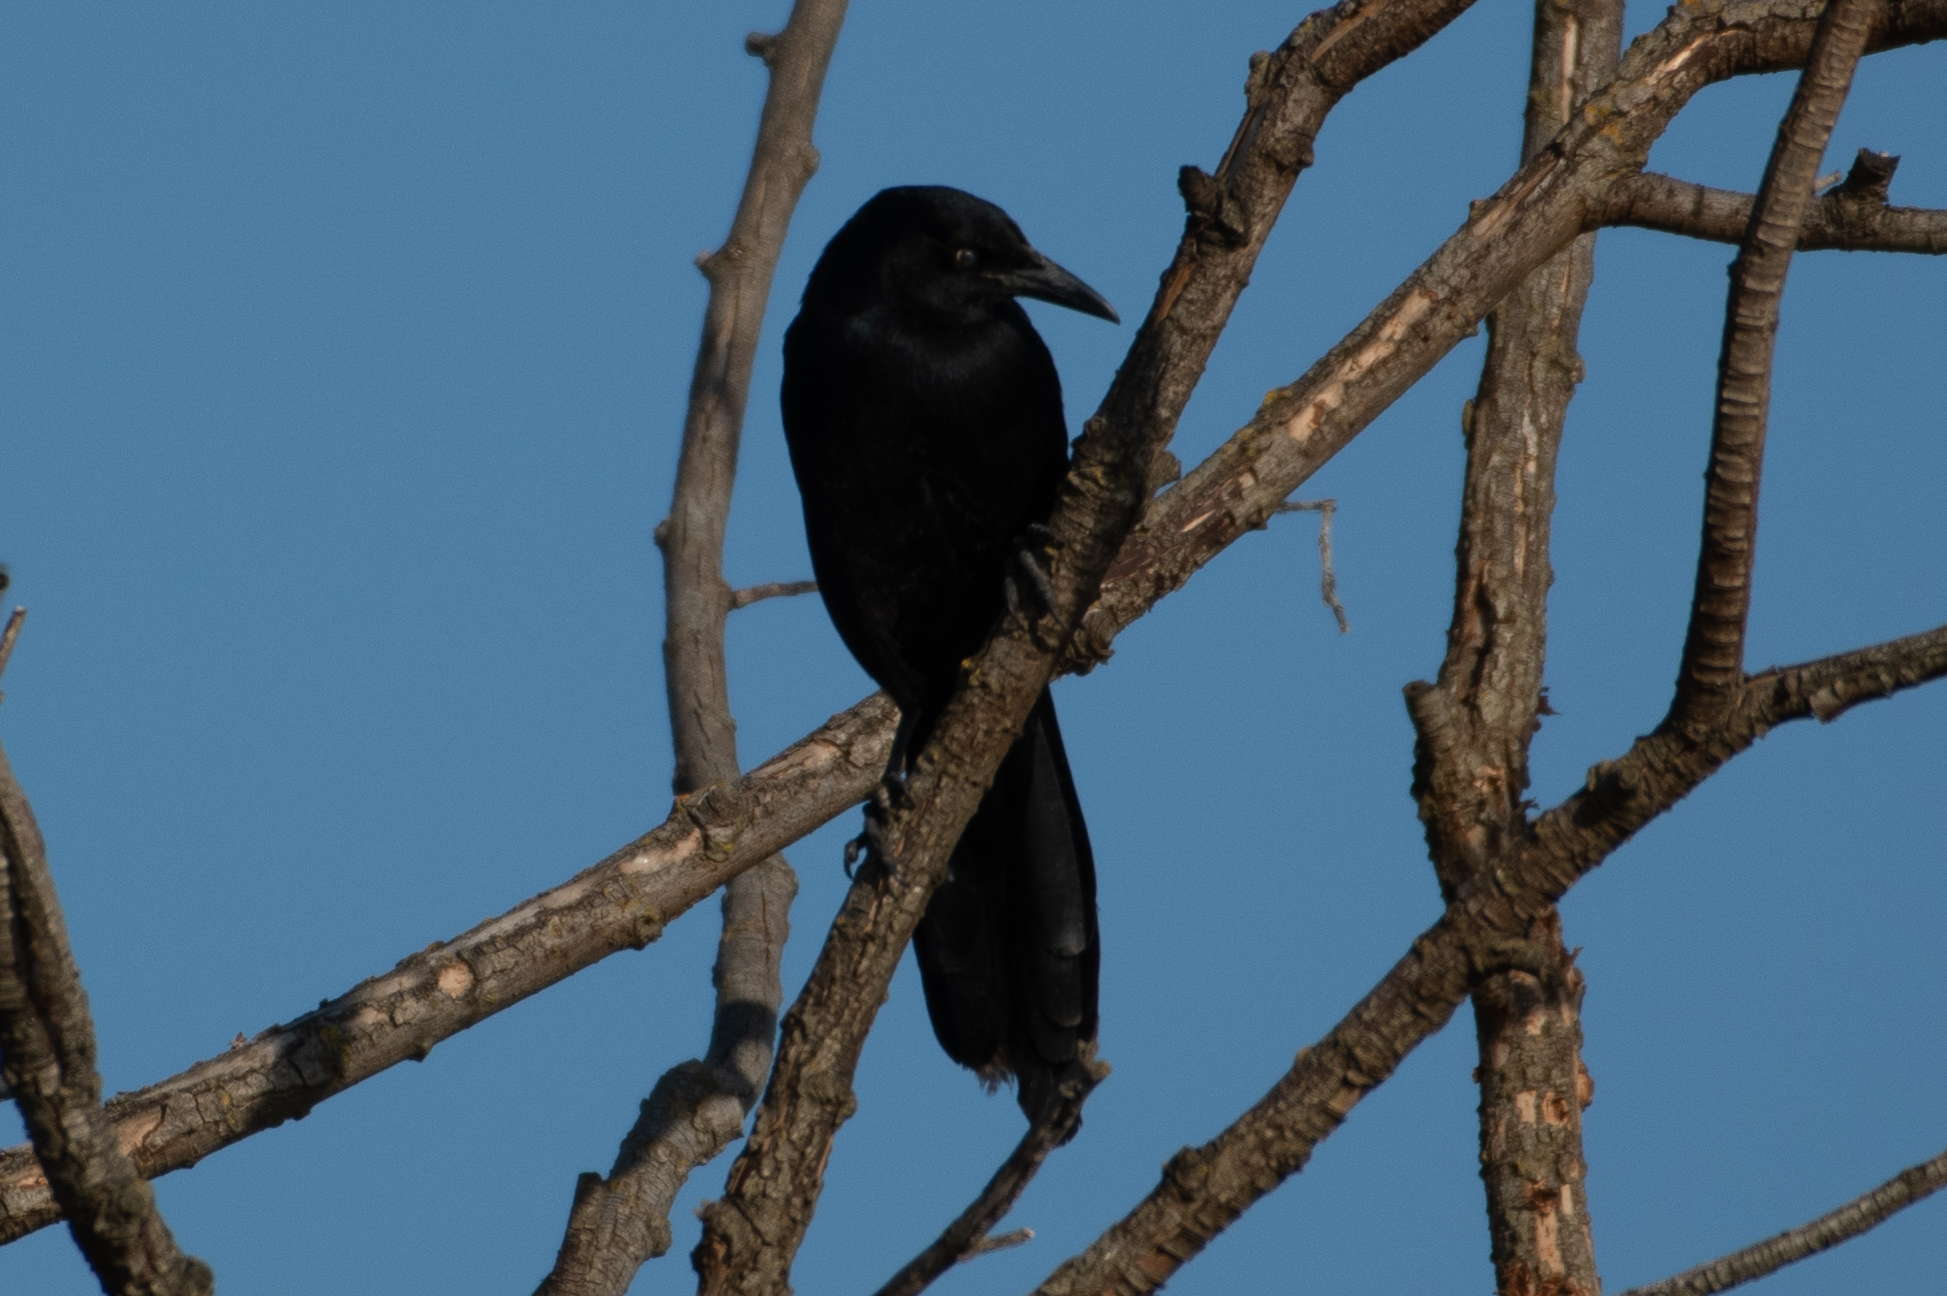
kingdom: Animalia
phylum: Chordata
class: Aves
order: Passeriformes
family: Icteridae
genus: Quiscalus
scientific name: Quiscalus mexicanus
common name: Great-tailed grackle
